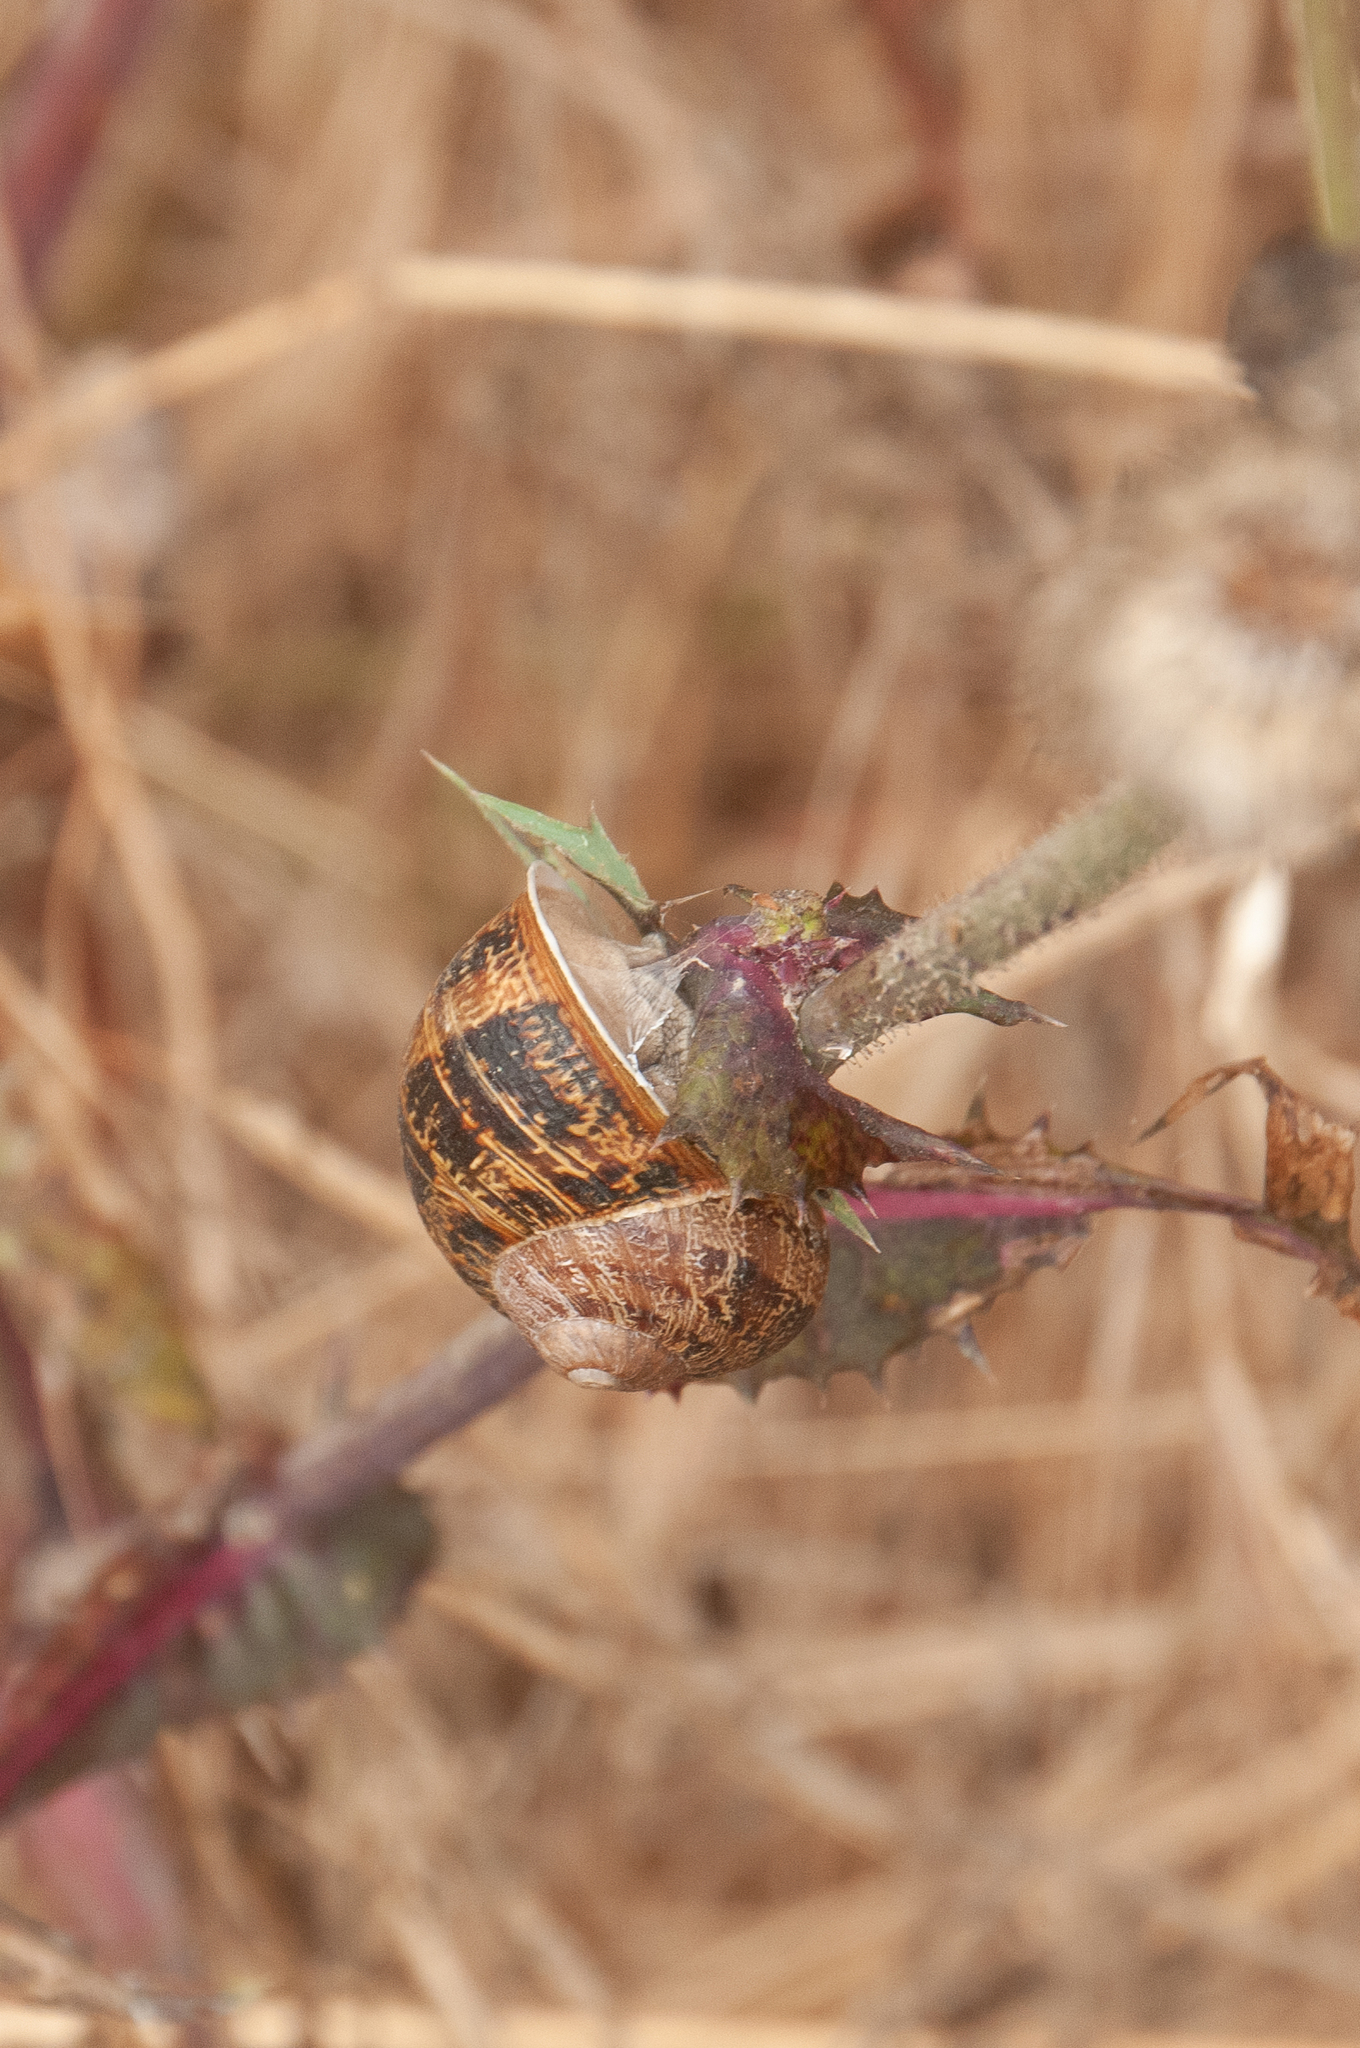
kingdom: Animalia
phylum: Mollusca
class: Gastropoda
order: Stylommatophora
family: Helicidae
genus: Cornu
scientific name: Cornu aspersum
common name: Brown garden snail
